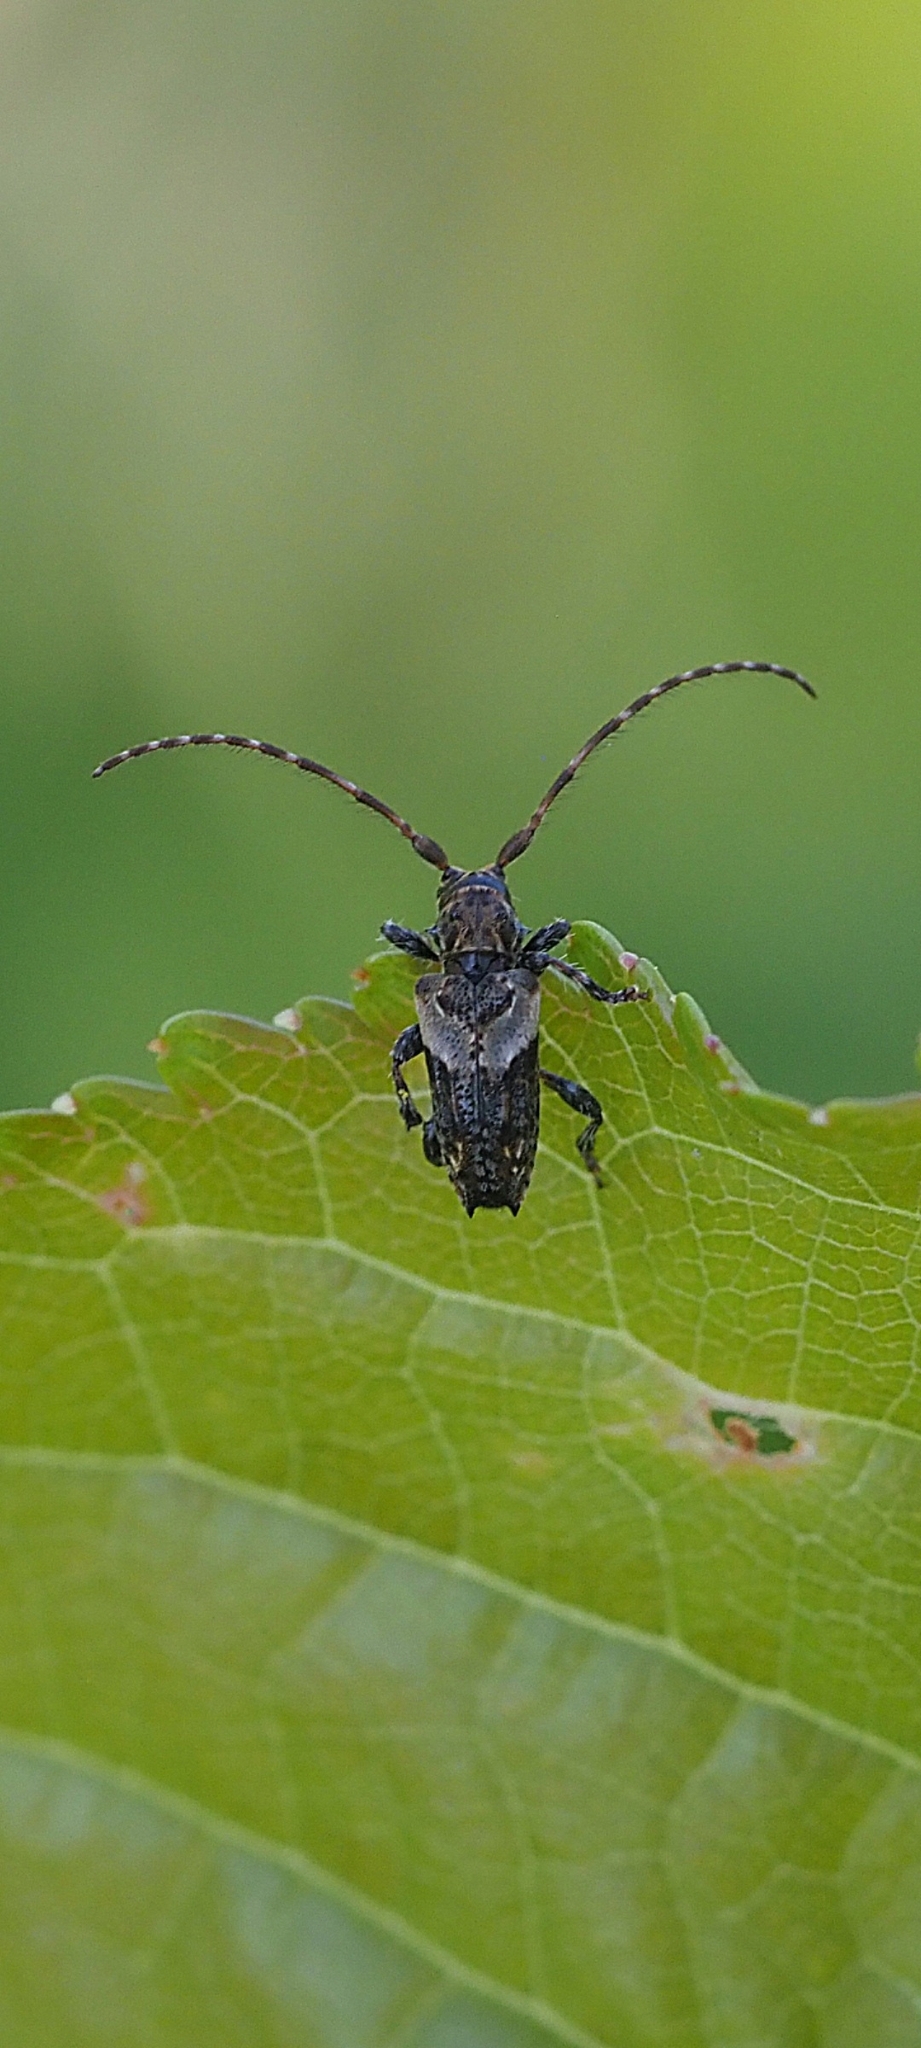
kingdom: Animalia
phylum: Arthropoda
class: Insecta
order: Coleoptera
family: Cerambycidae
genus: Pogonocherus
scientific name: Pogonocherus hispidus
